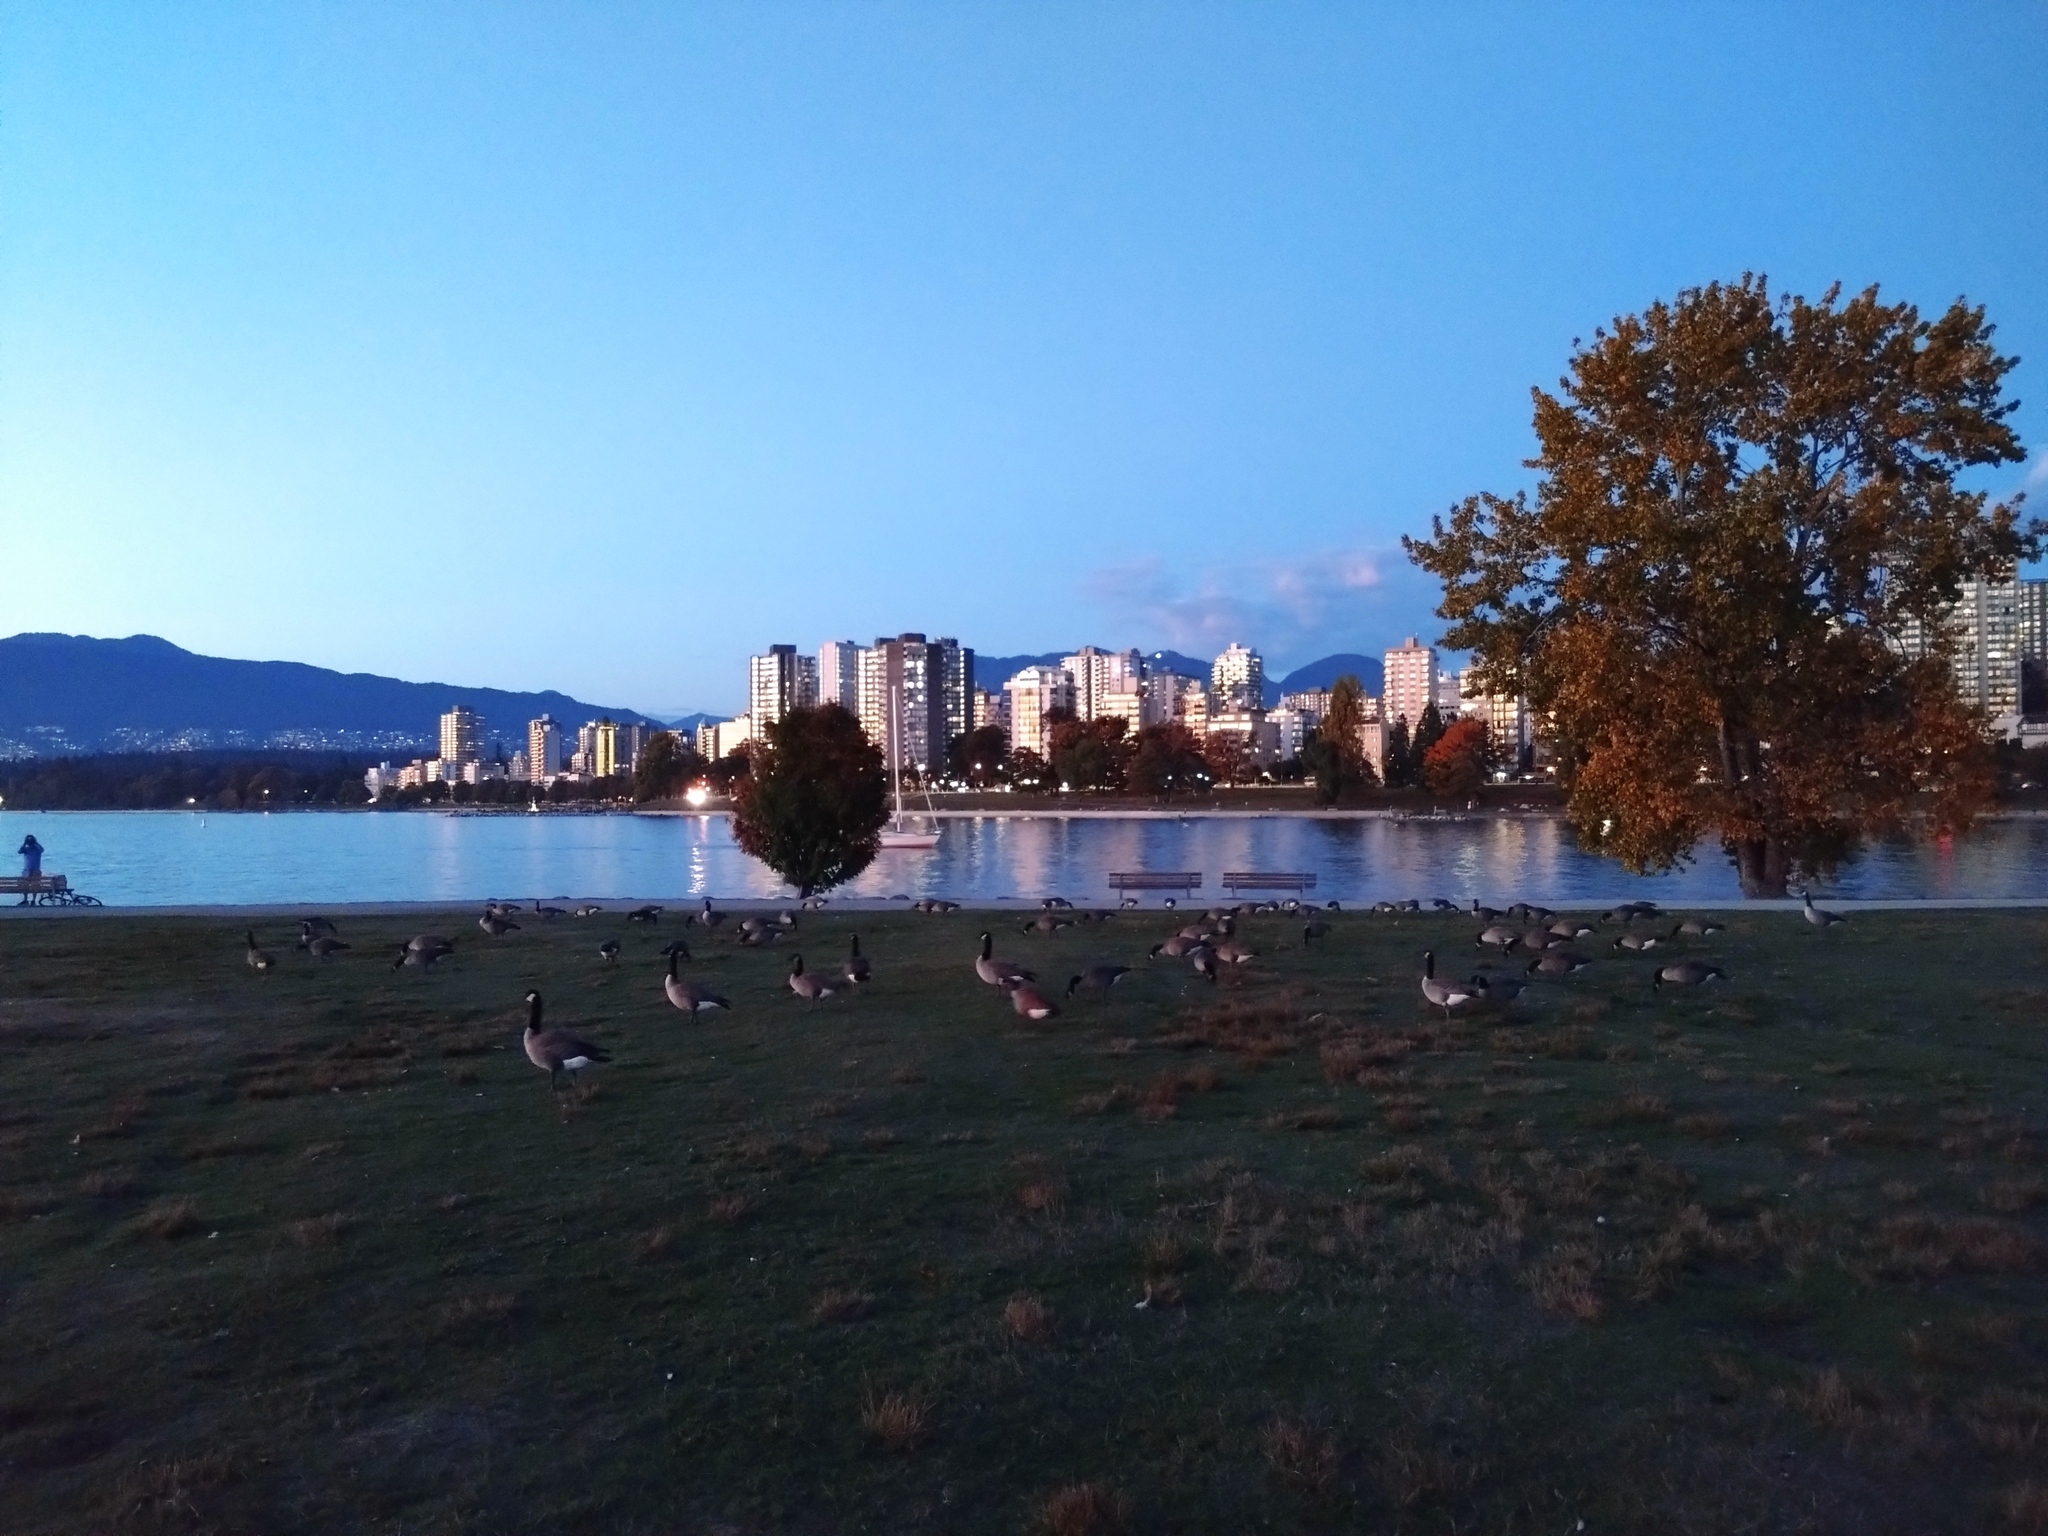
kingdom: Animalia
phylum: Chordata
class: Aves
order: Anseriformes
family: Anatidae
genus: Branta
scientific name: Branta canadensis
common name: Canada goose
